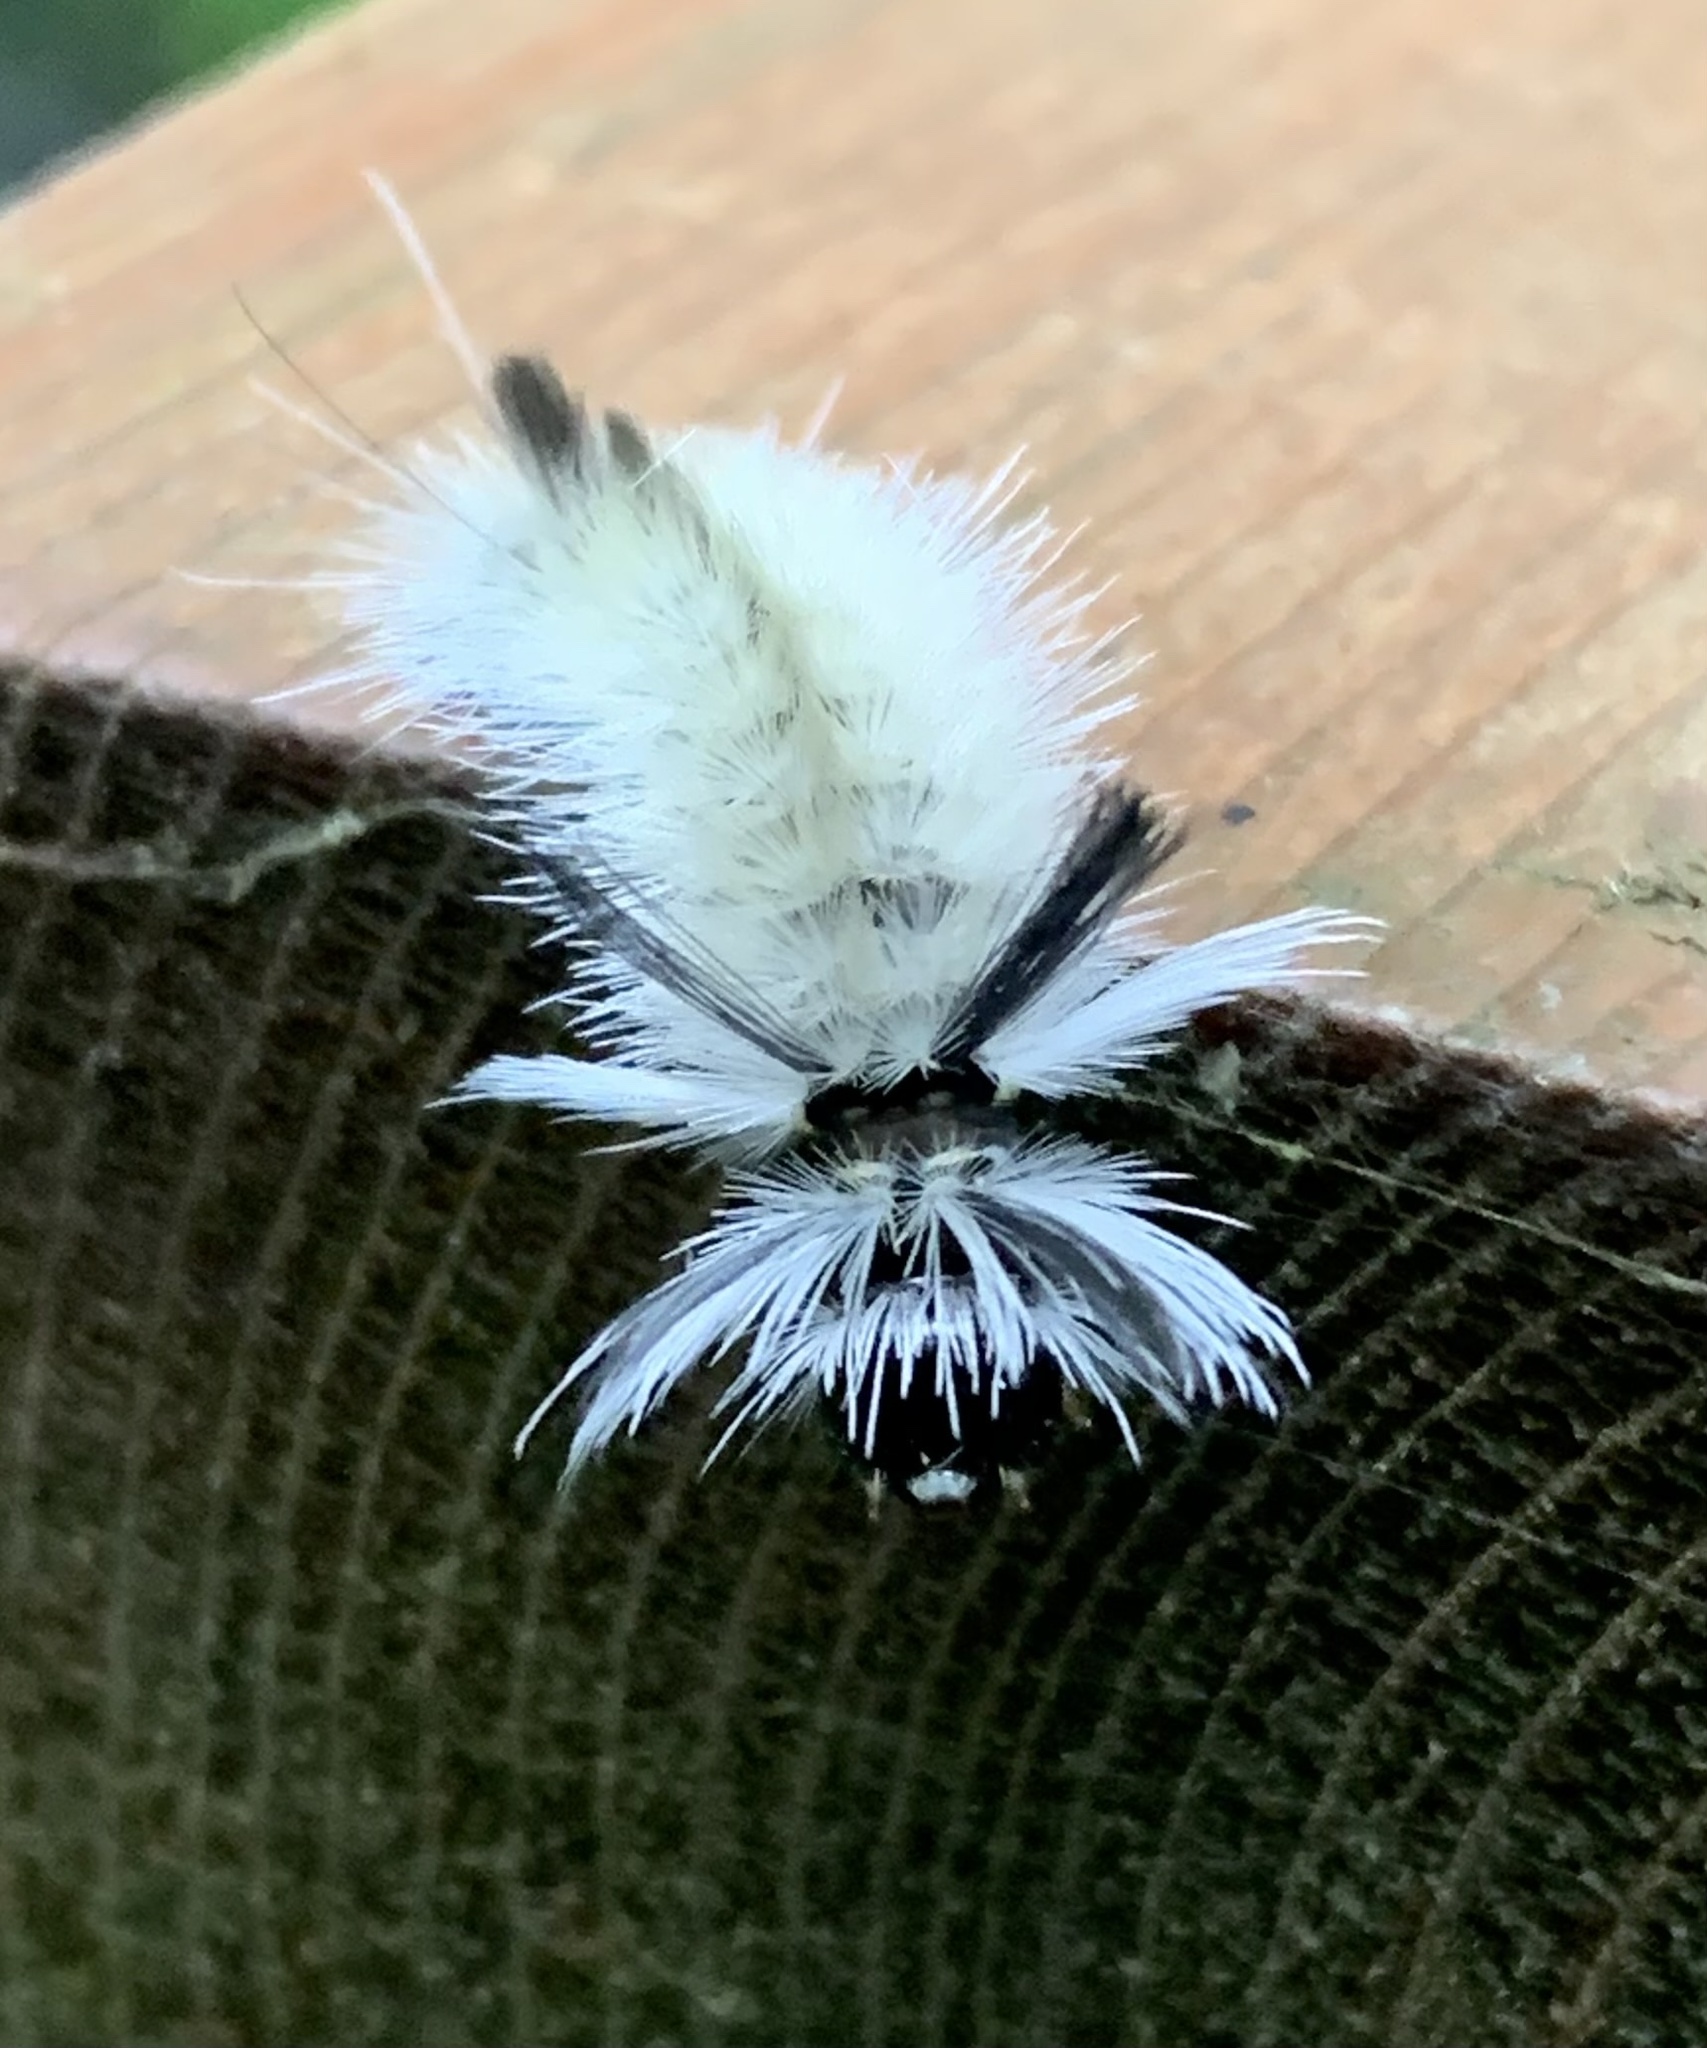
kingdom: Animalia
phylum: Arthropoda
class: Insecta
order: Lepidoptera
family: Erebidae
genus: Halysidota
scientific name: Halysidota tessellaris
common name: Banded tussock moth
